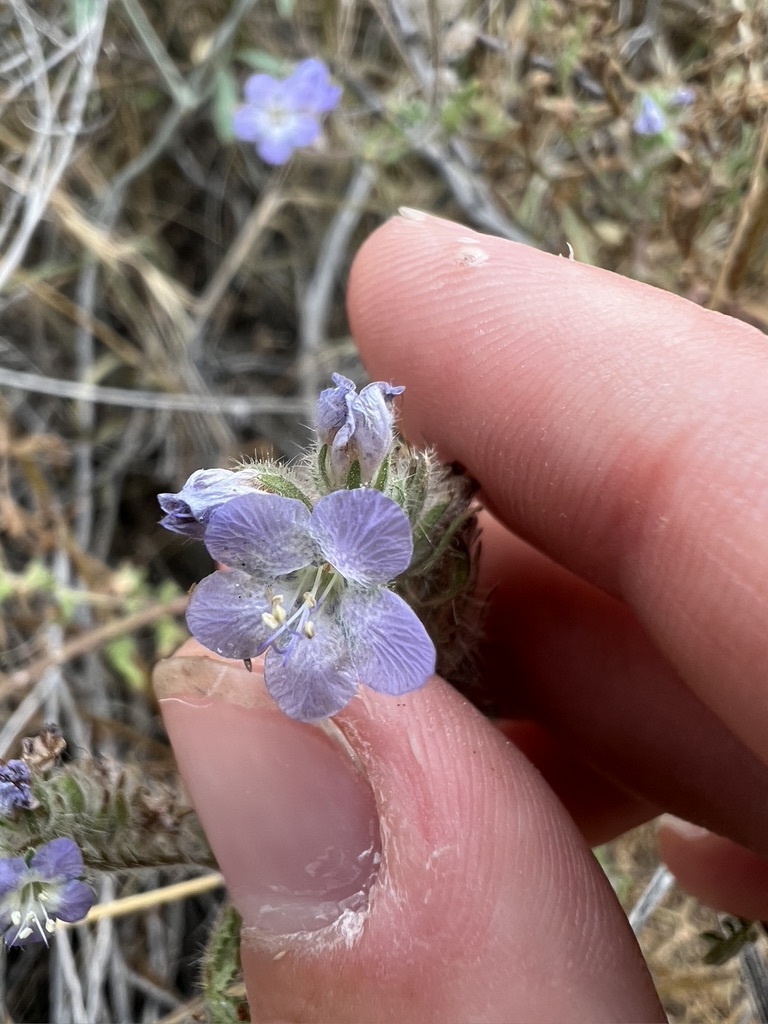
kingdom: Plantae
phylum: Tracheophyta
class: Magnoliopsida
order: Boraginales
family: Hydrophyllaceae
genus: Phacelia
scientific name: Phacelia distans
